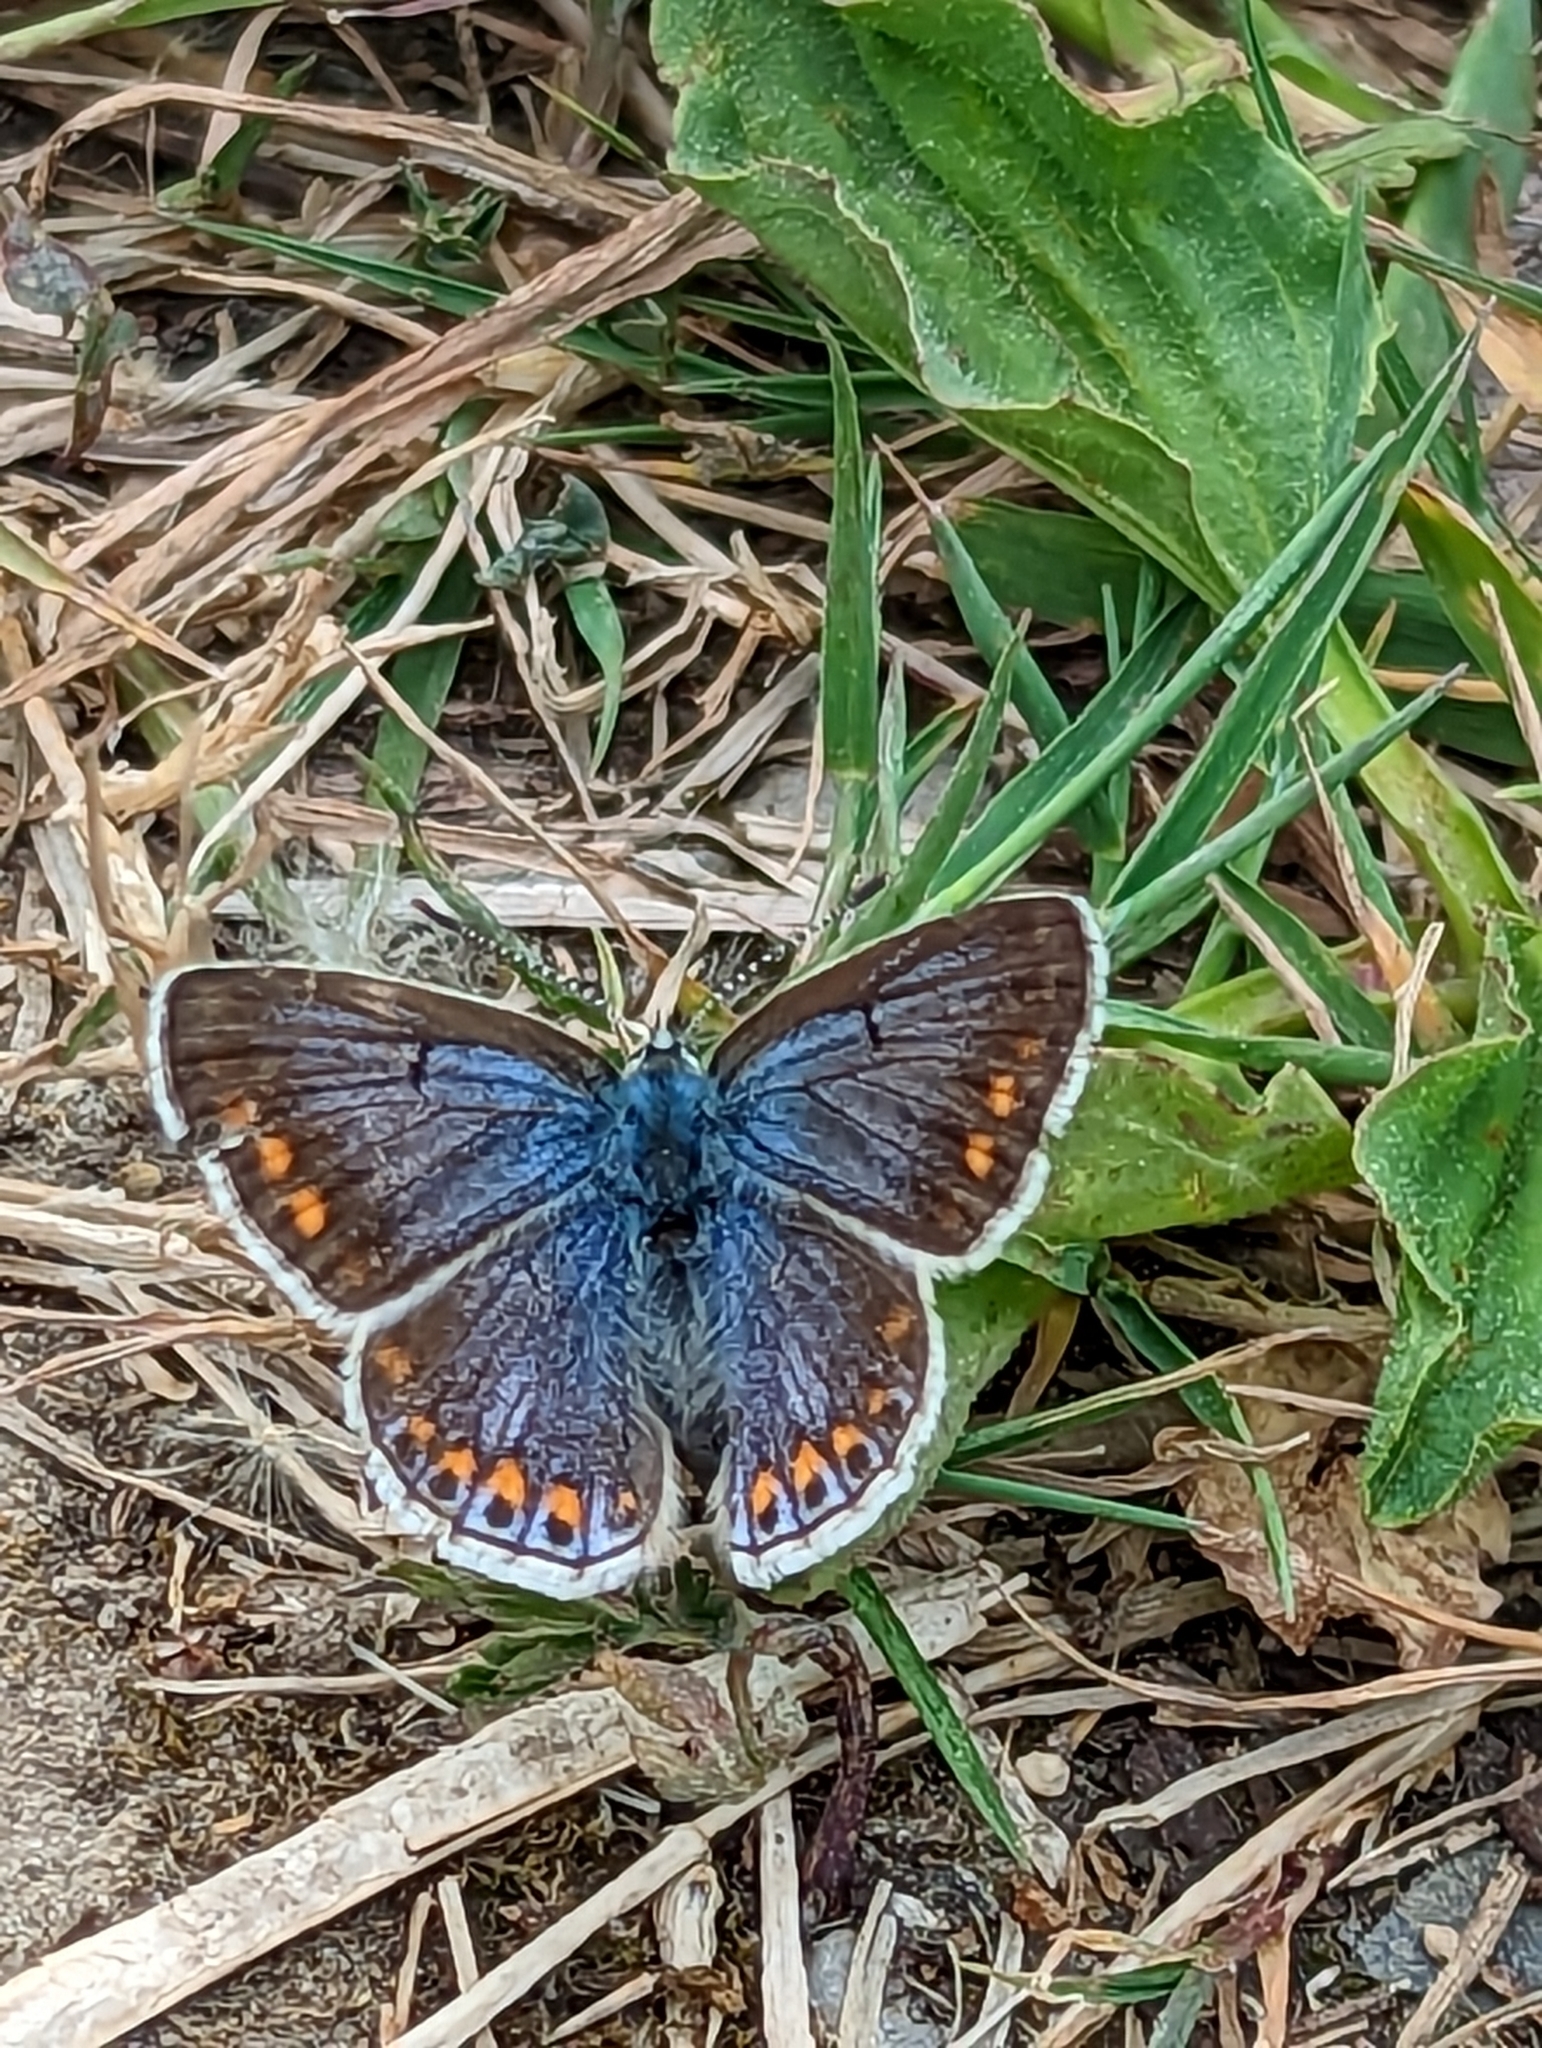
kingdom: Animalia
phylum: Arthropoda
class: Insecta
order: Lepidoptera
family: Lycaenidae
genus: Polyommatus
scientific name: Polyommatus icarus
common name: Common blue
